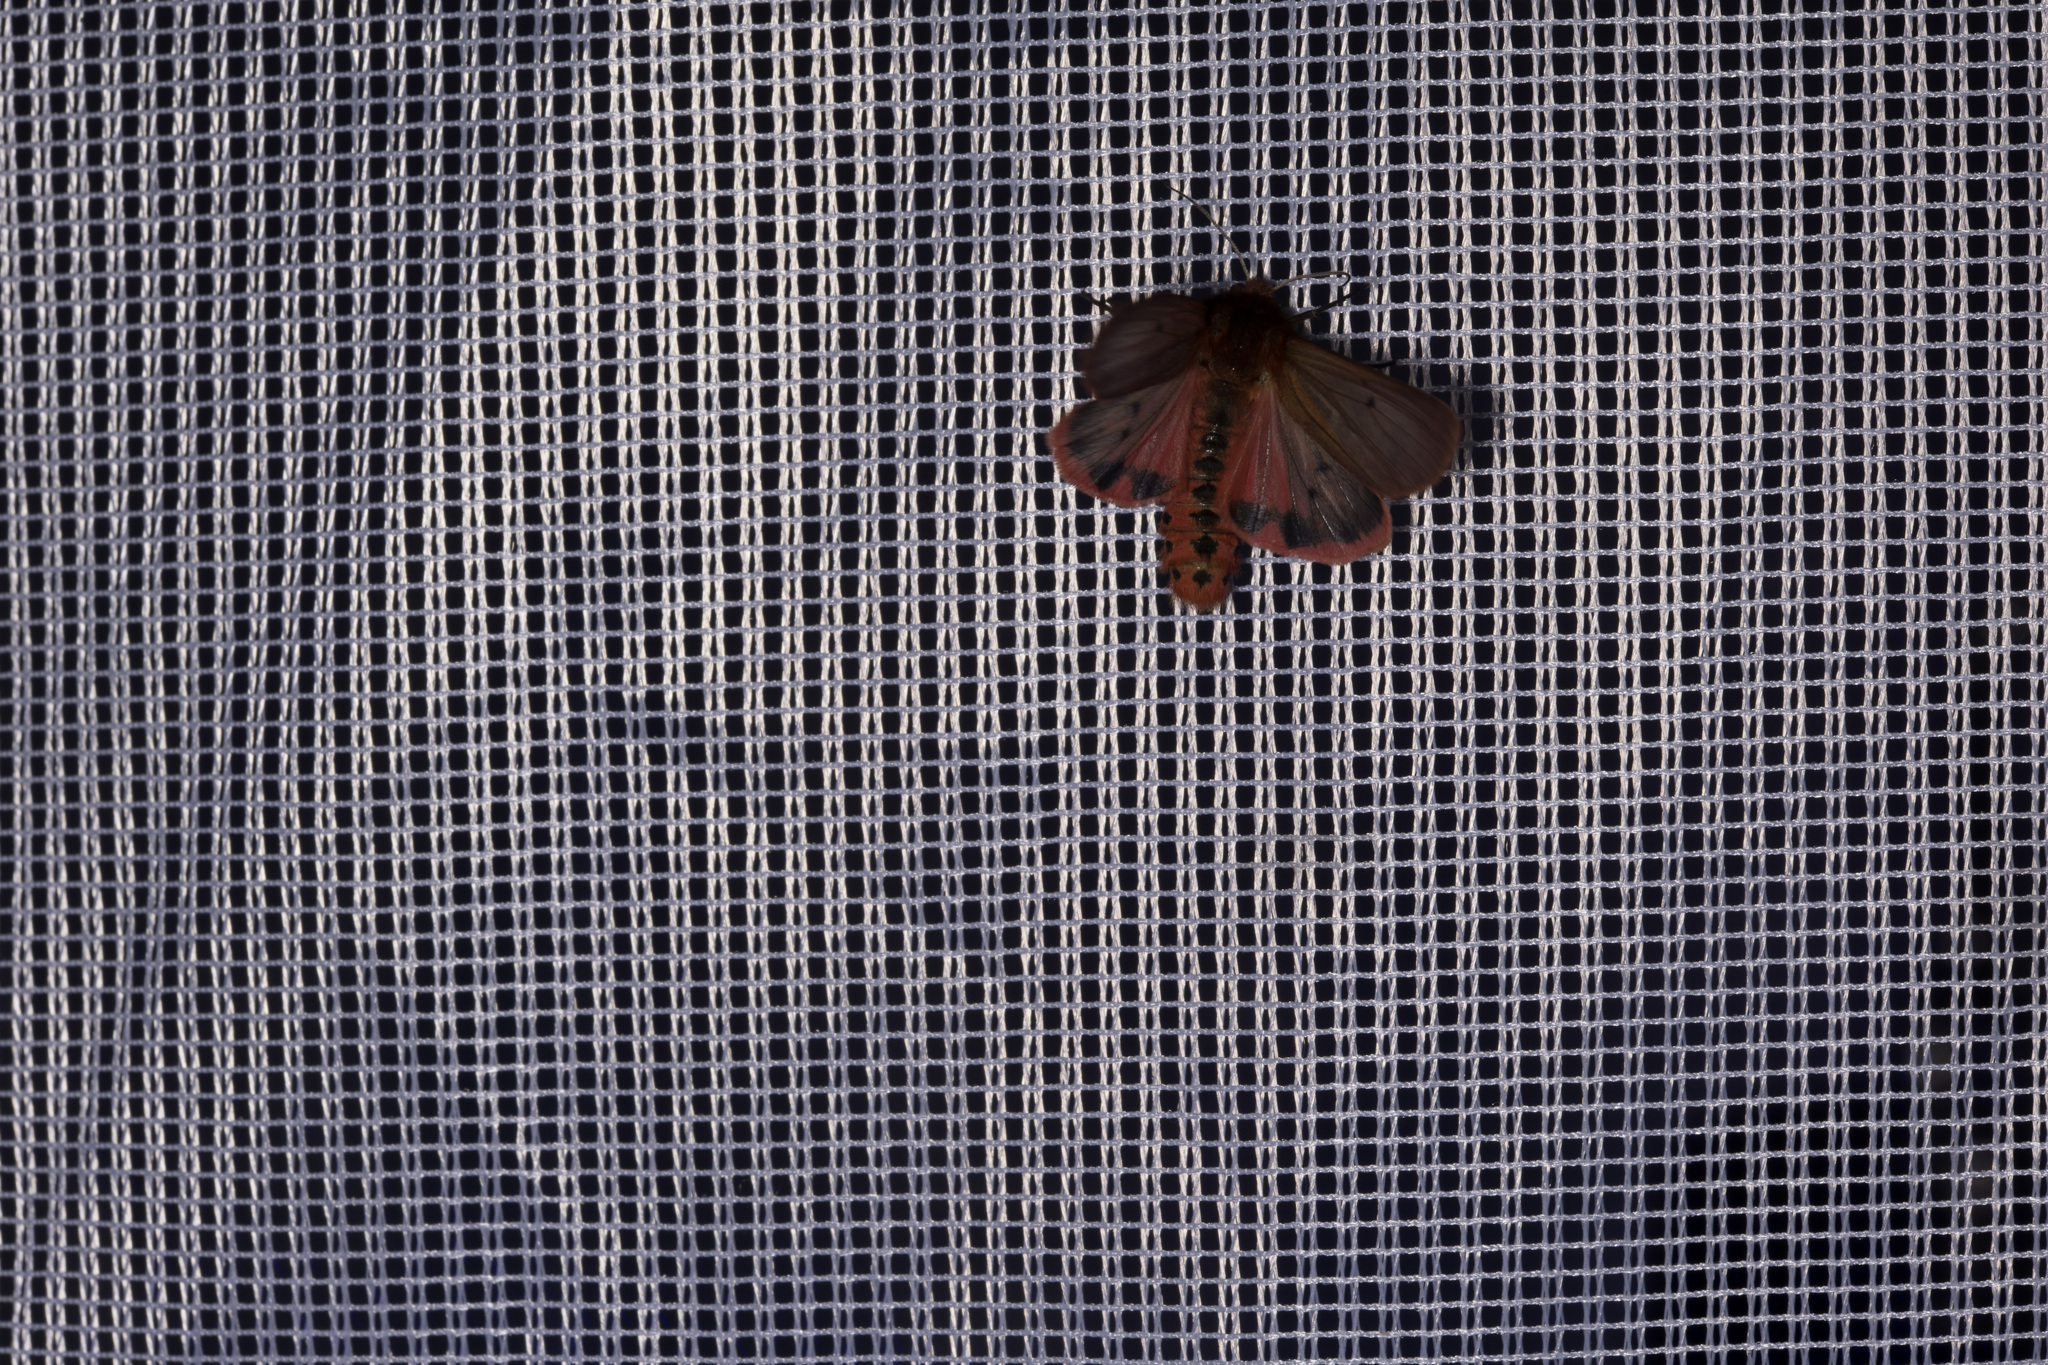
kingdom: Animalia
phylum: Arthropoda
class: Insecta
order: Lepidoptera
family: Erebidae
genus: Phragmatobia
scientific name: Phragmatobia fuliginosa
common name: Ruby tiger
